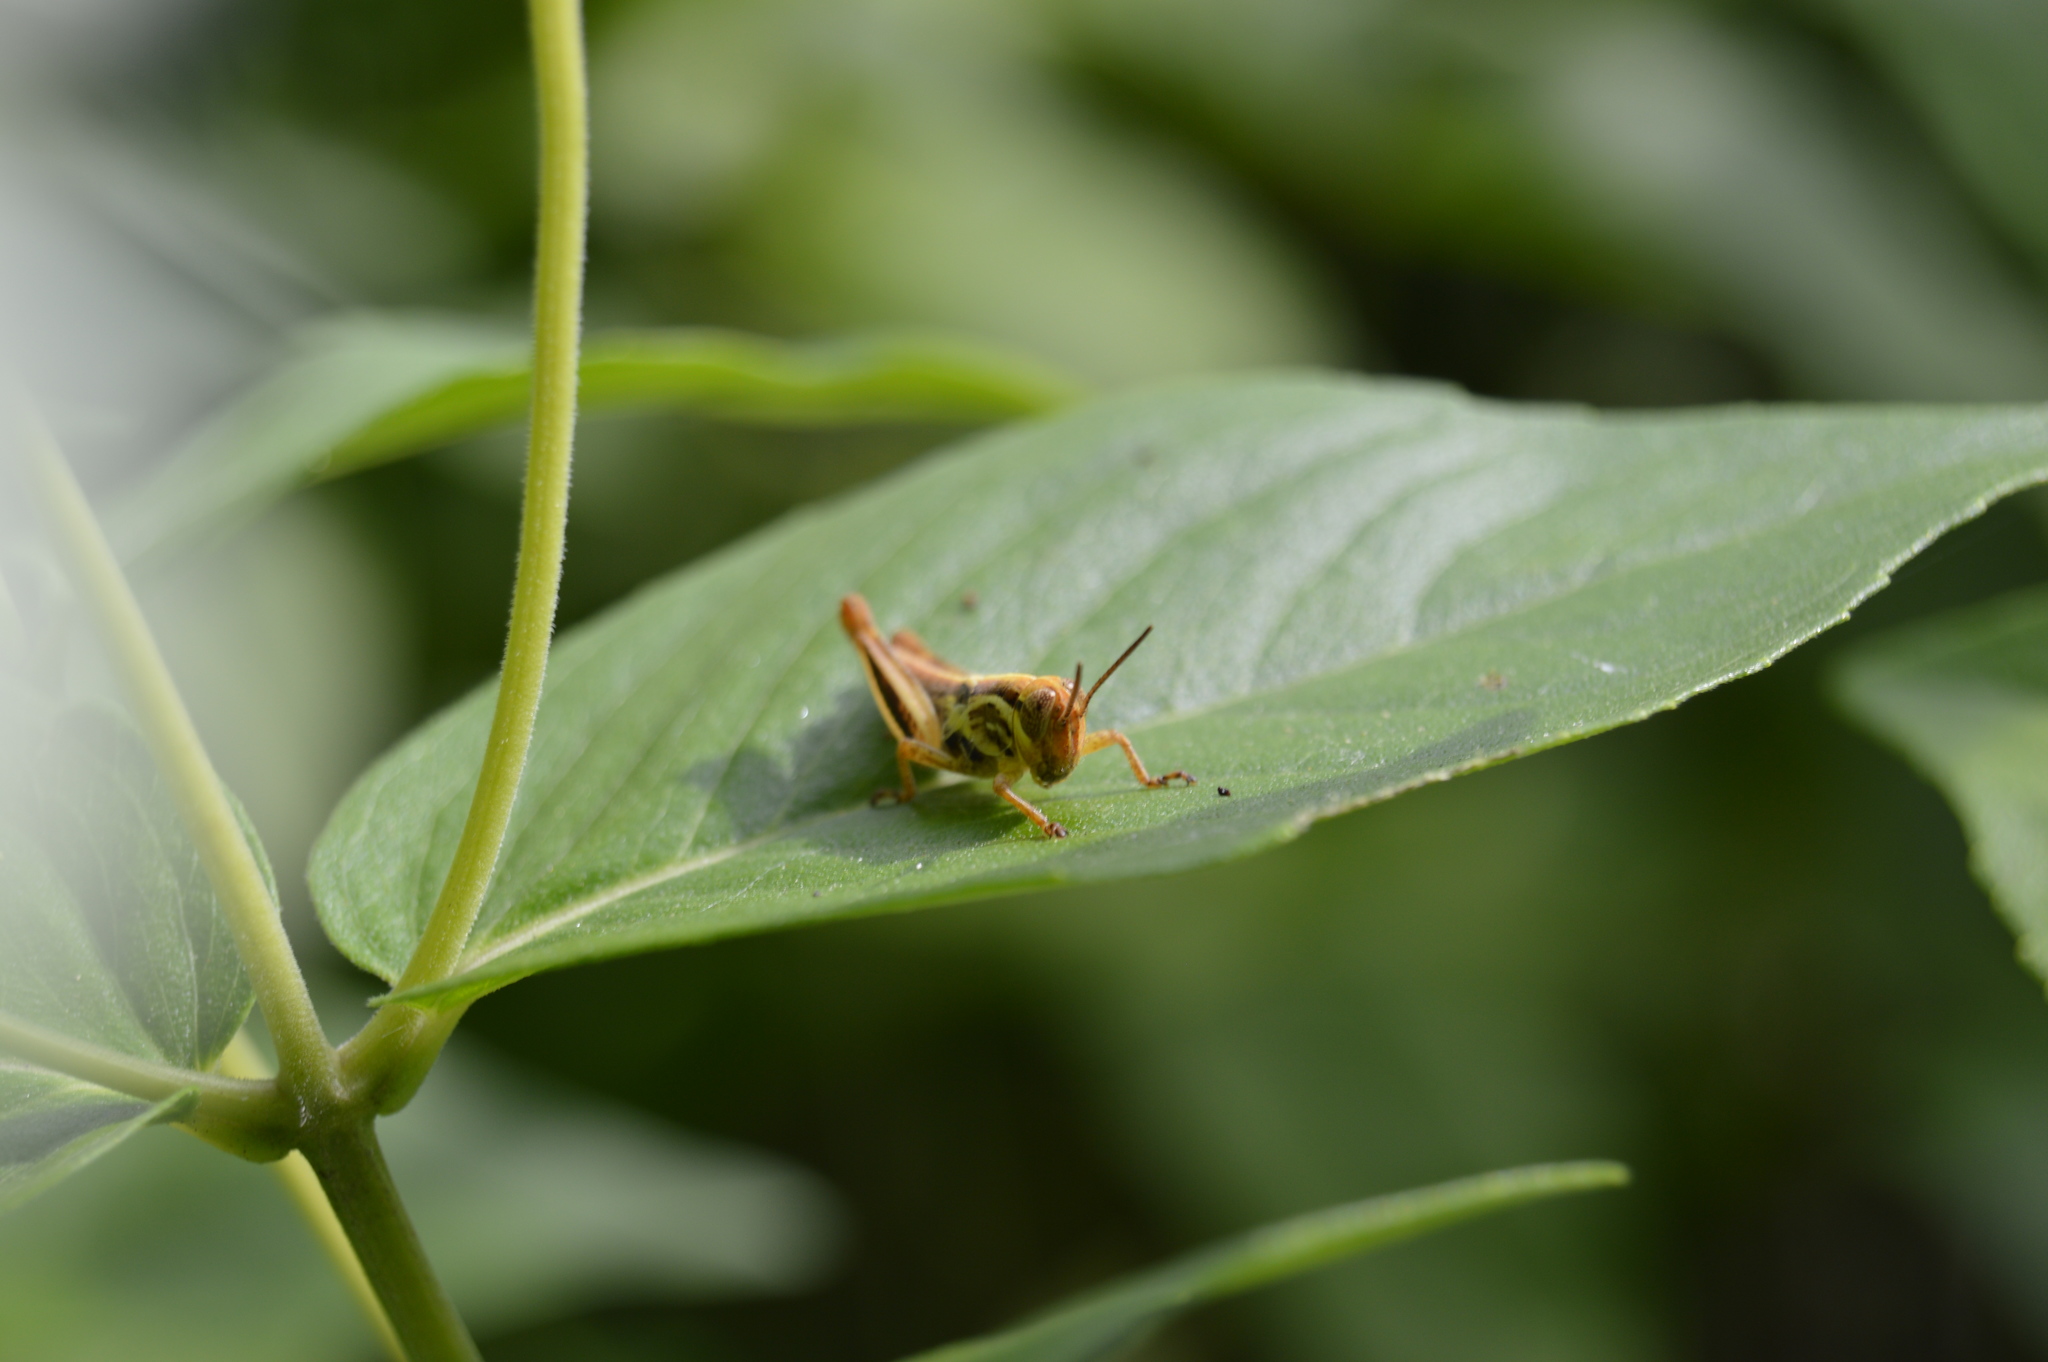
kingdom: Animalia
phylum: Arthropoda
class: Insecta
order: Orthoptera
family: Acrididae
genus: Melanoplus
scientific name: Melanoplus
